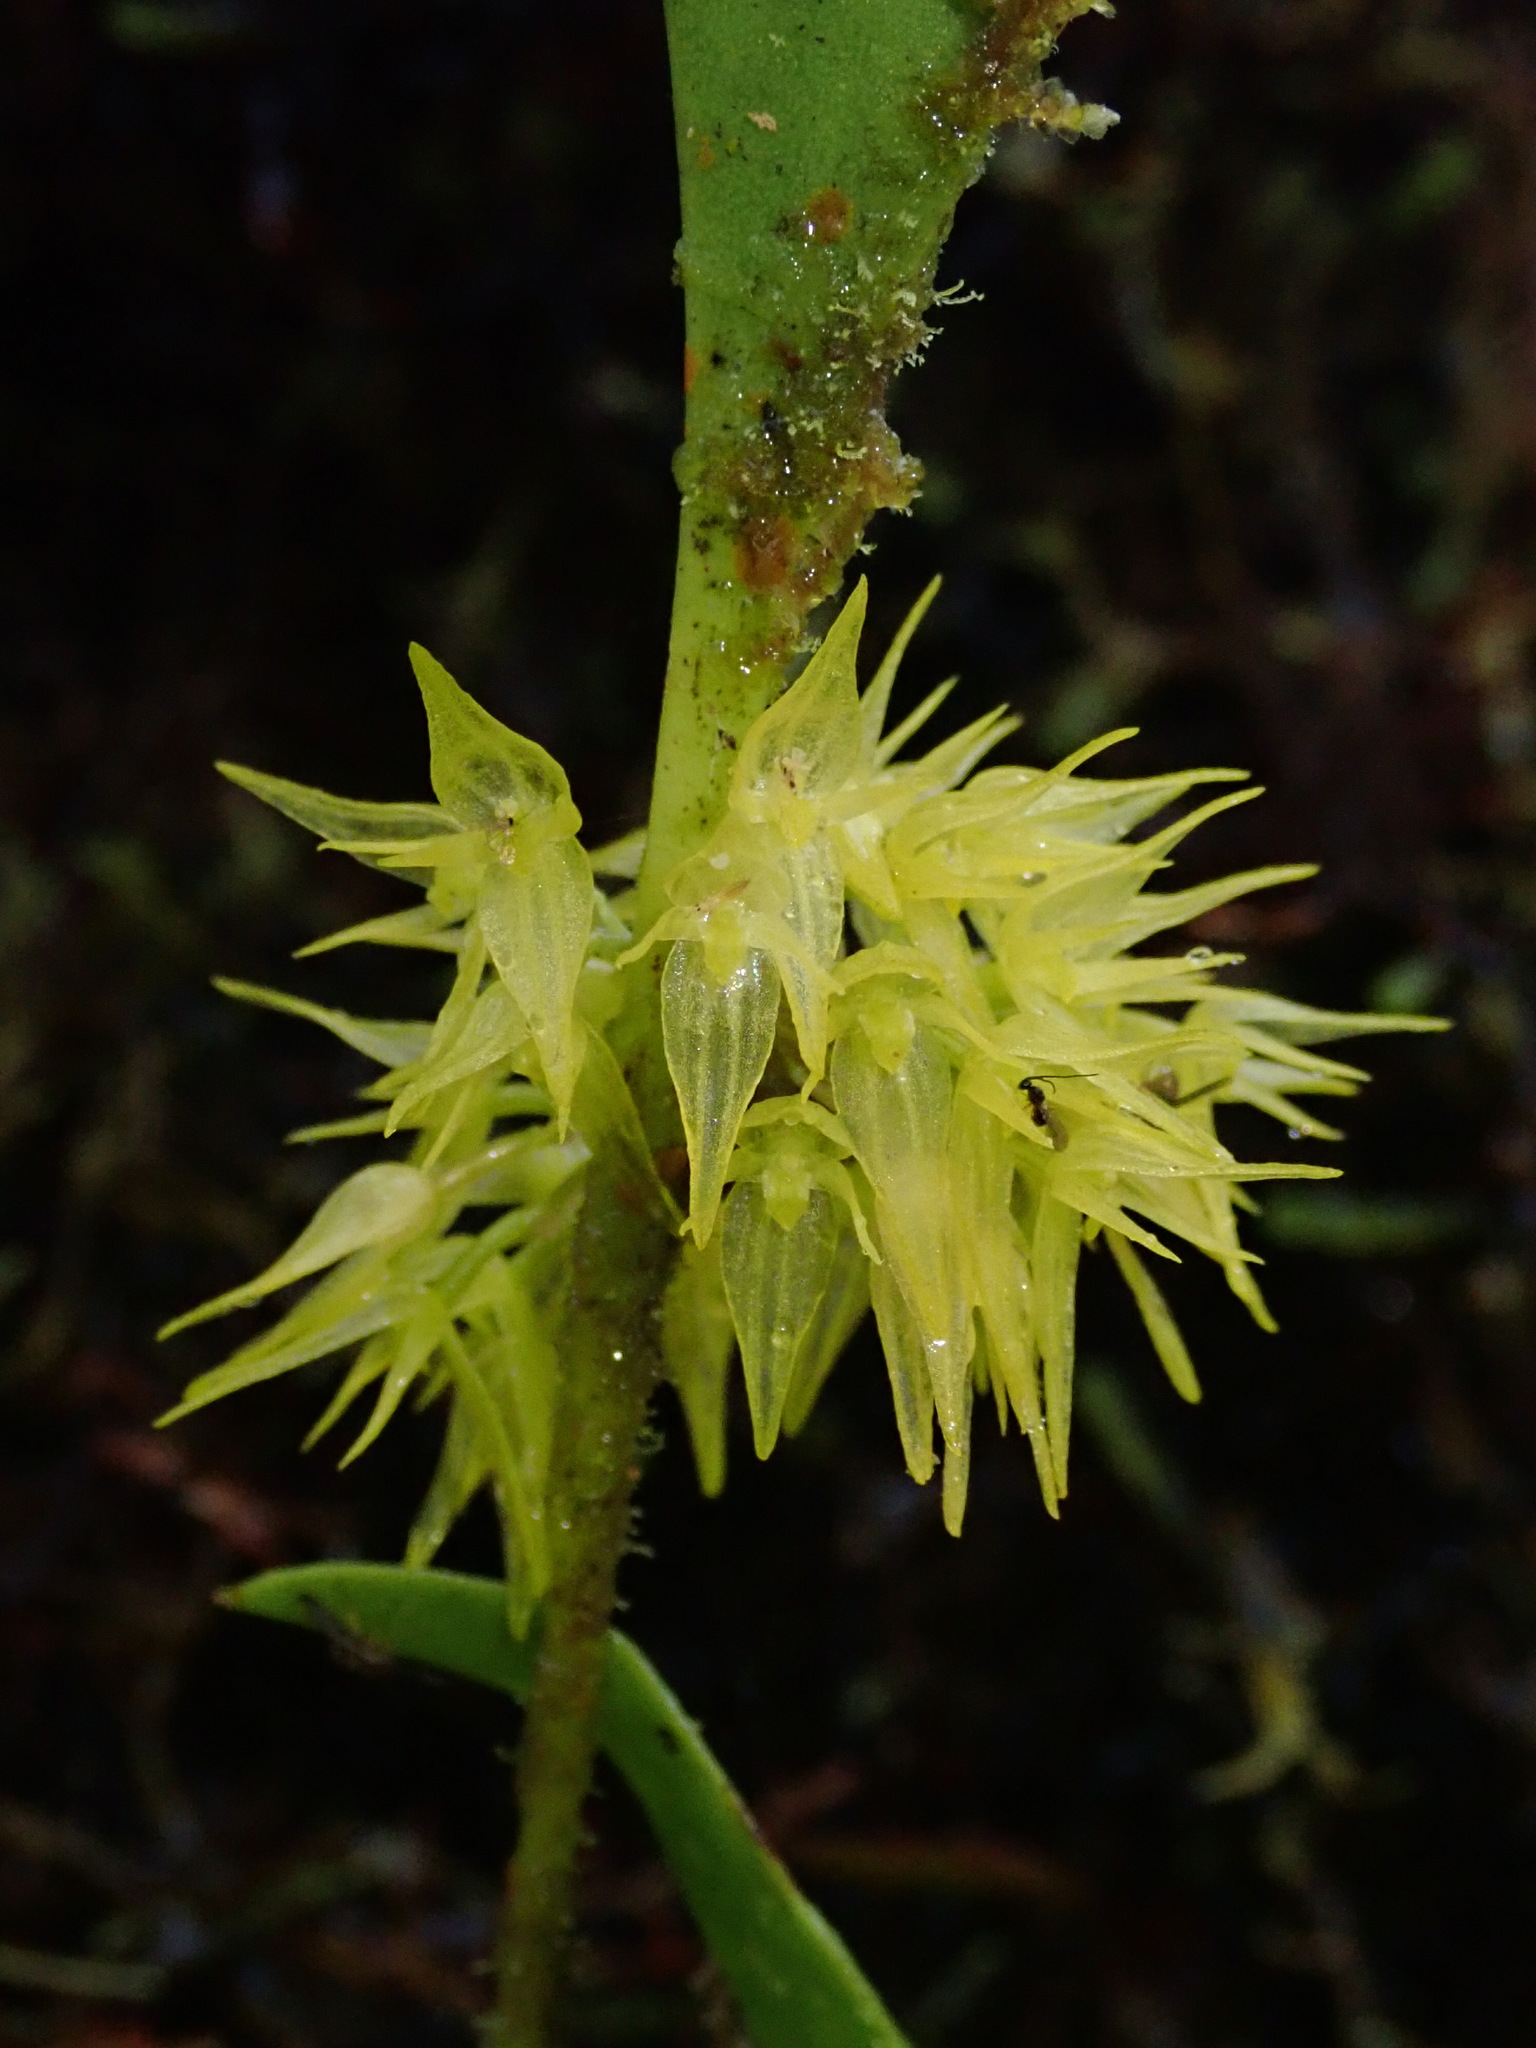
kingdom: Plantae
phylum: Tracheophyta
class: Liliopsida
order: Asparagales
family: Orchidaceae
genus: Pleurothallis
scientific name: Pleurothallis ruscifolia
